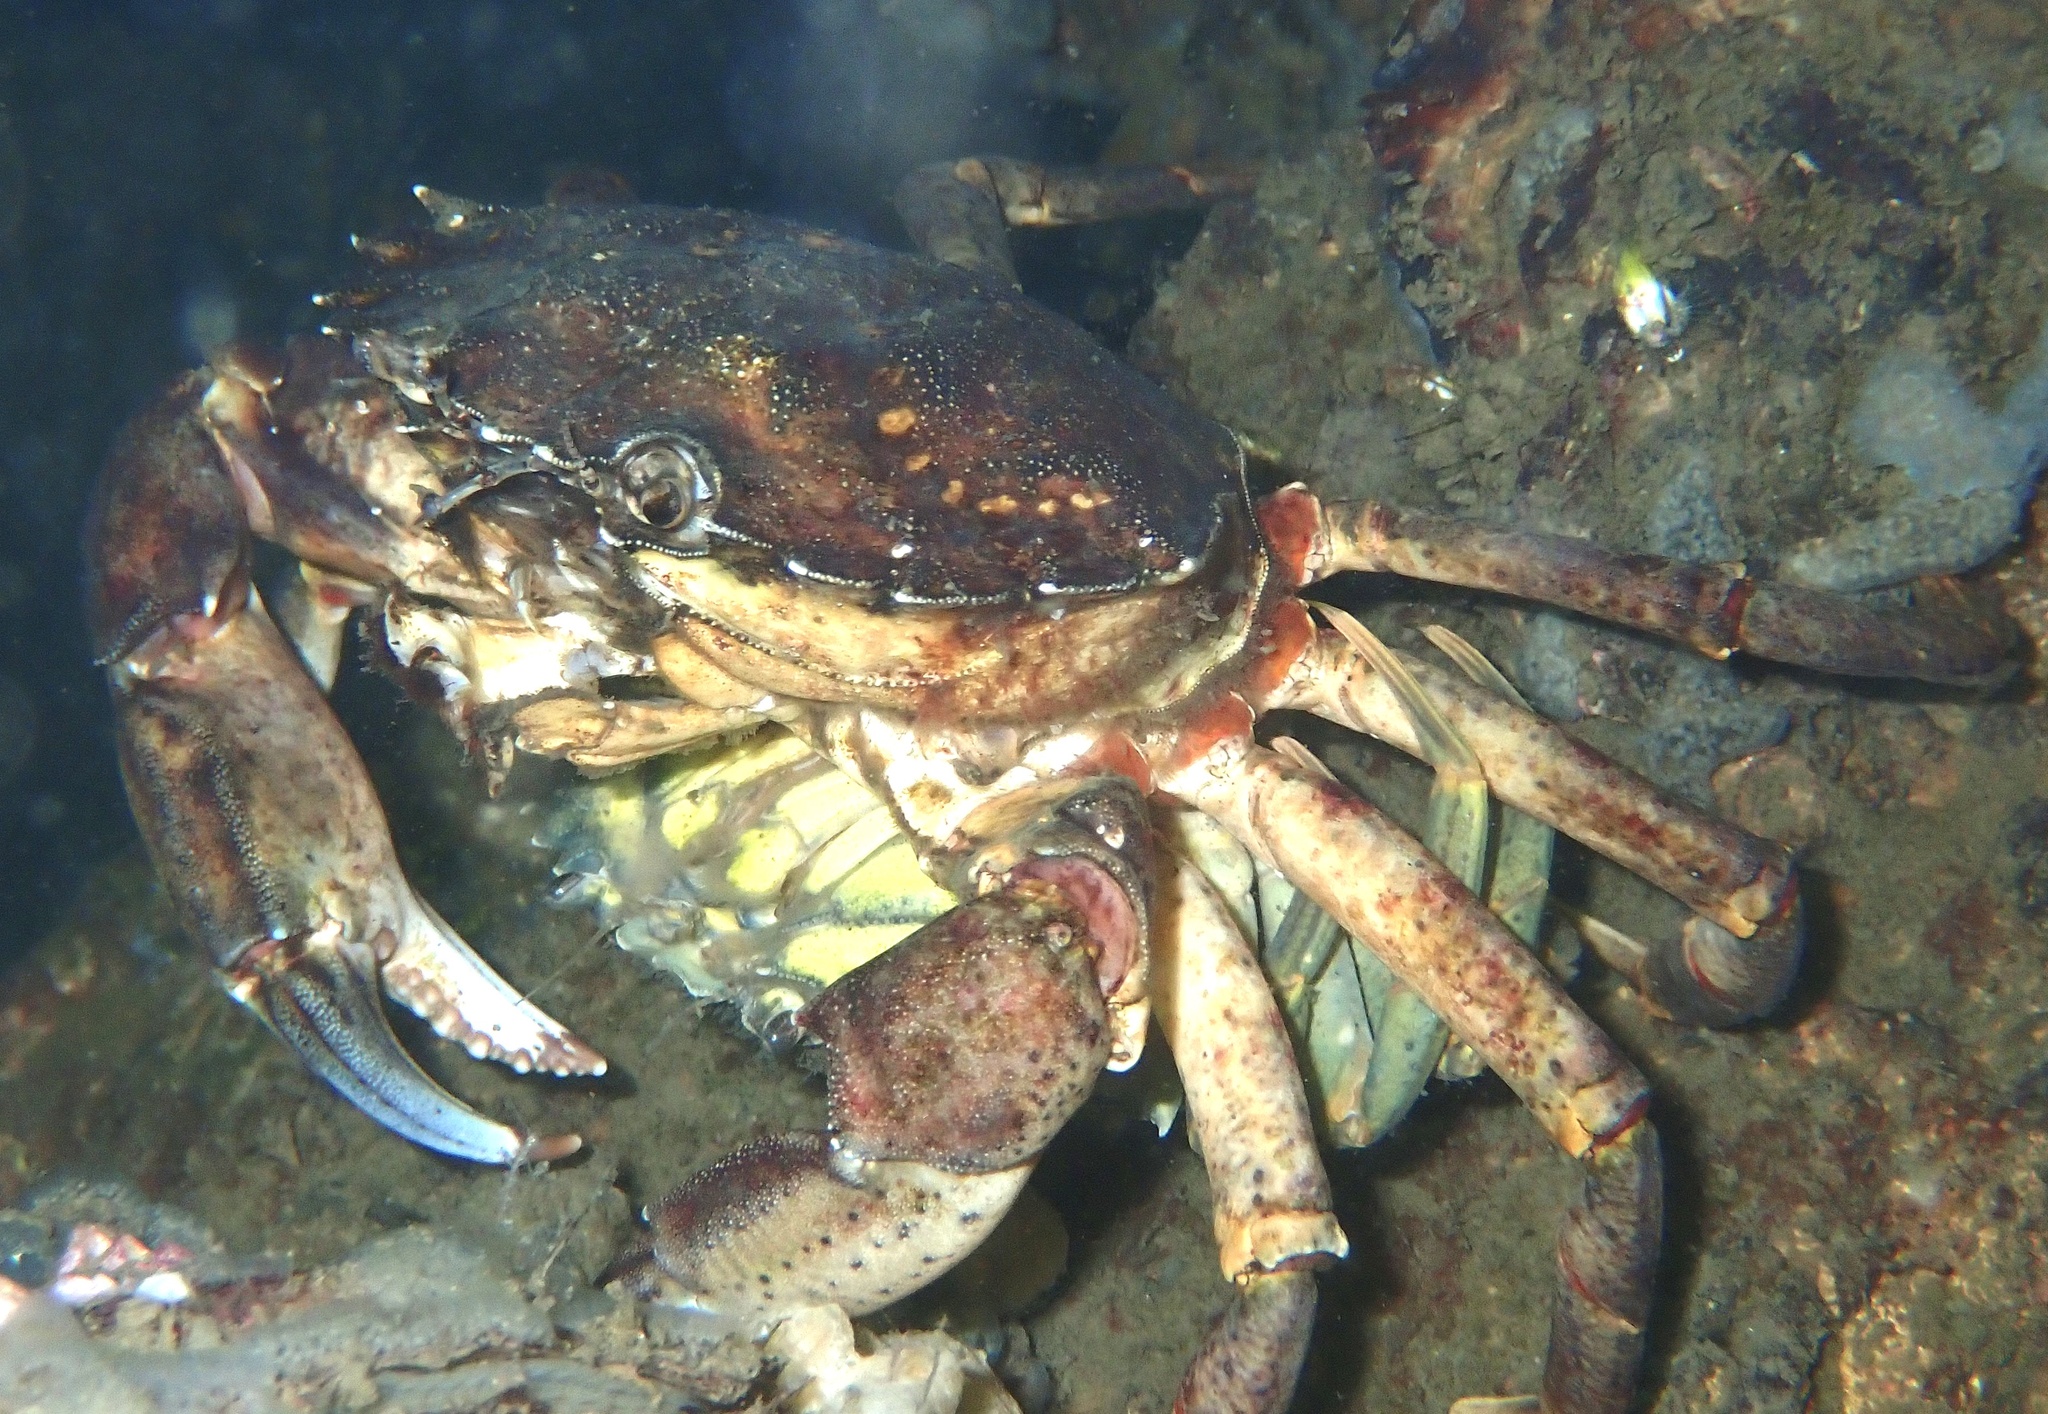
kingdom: Animalia
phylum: Arthropoda
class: Malacostraca
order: Decapoda
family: Carcinidae
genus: Carcinus
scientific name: Carcinus maenas
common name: European green crab
